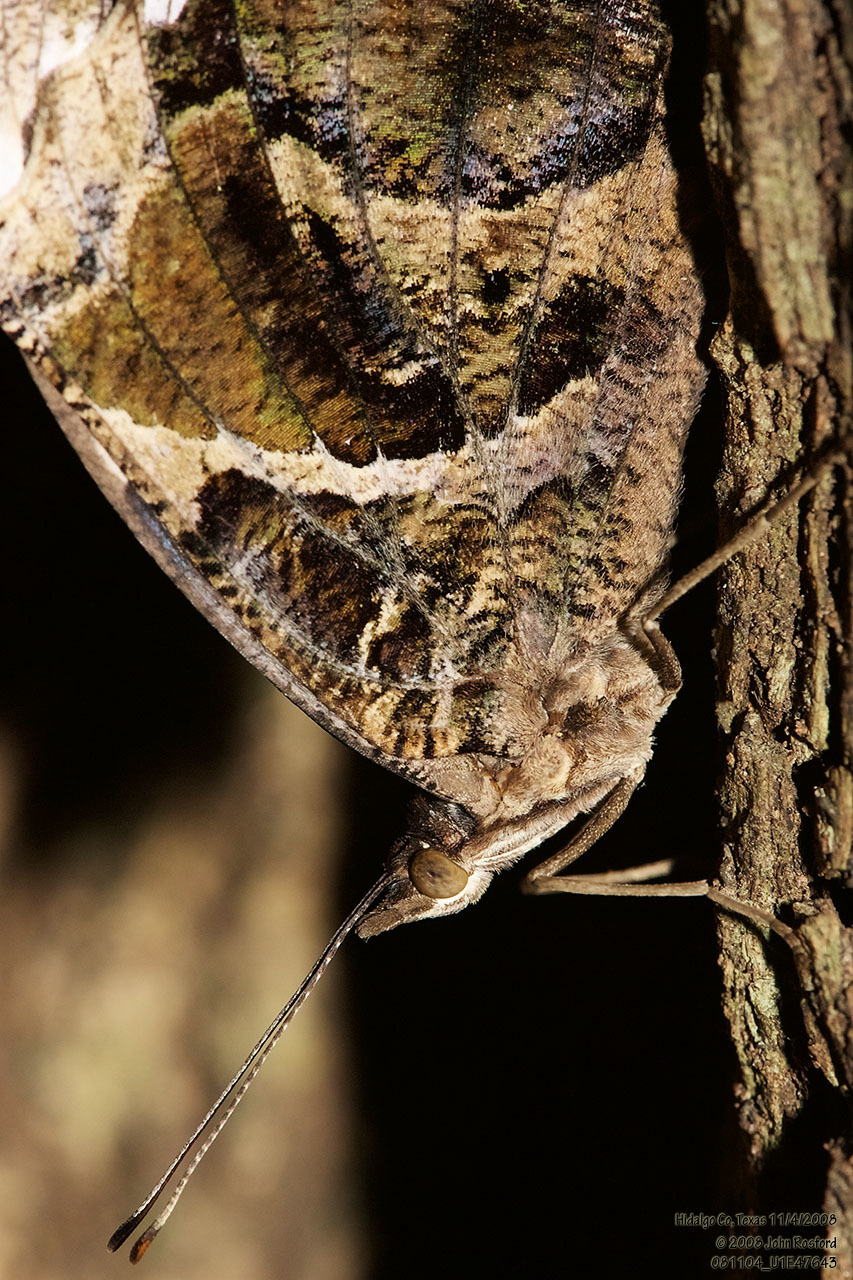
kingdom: Animalia
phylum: Arthropoda
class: Insecta
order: Lepidoptera
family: Nymphalidae
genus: Myscelia
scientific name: Myscelia ethusa
